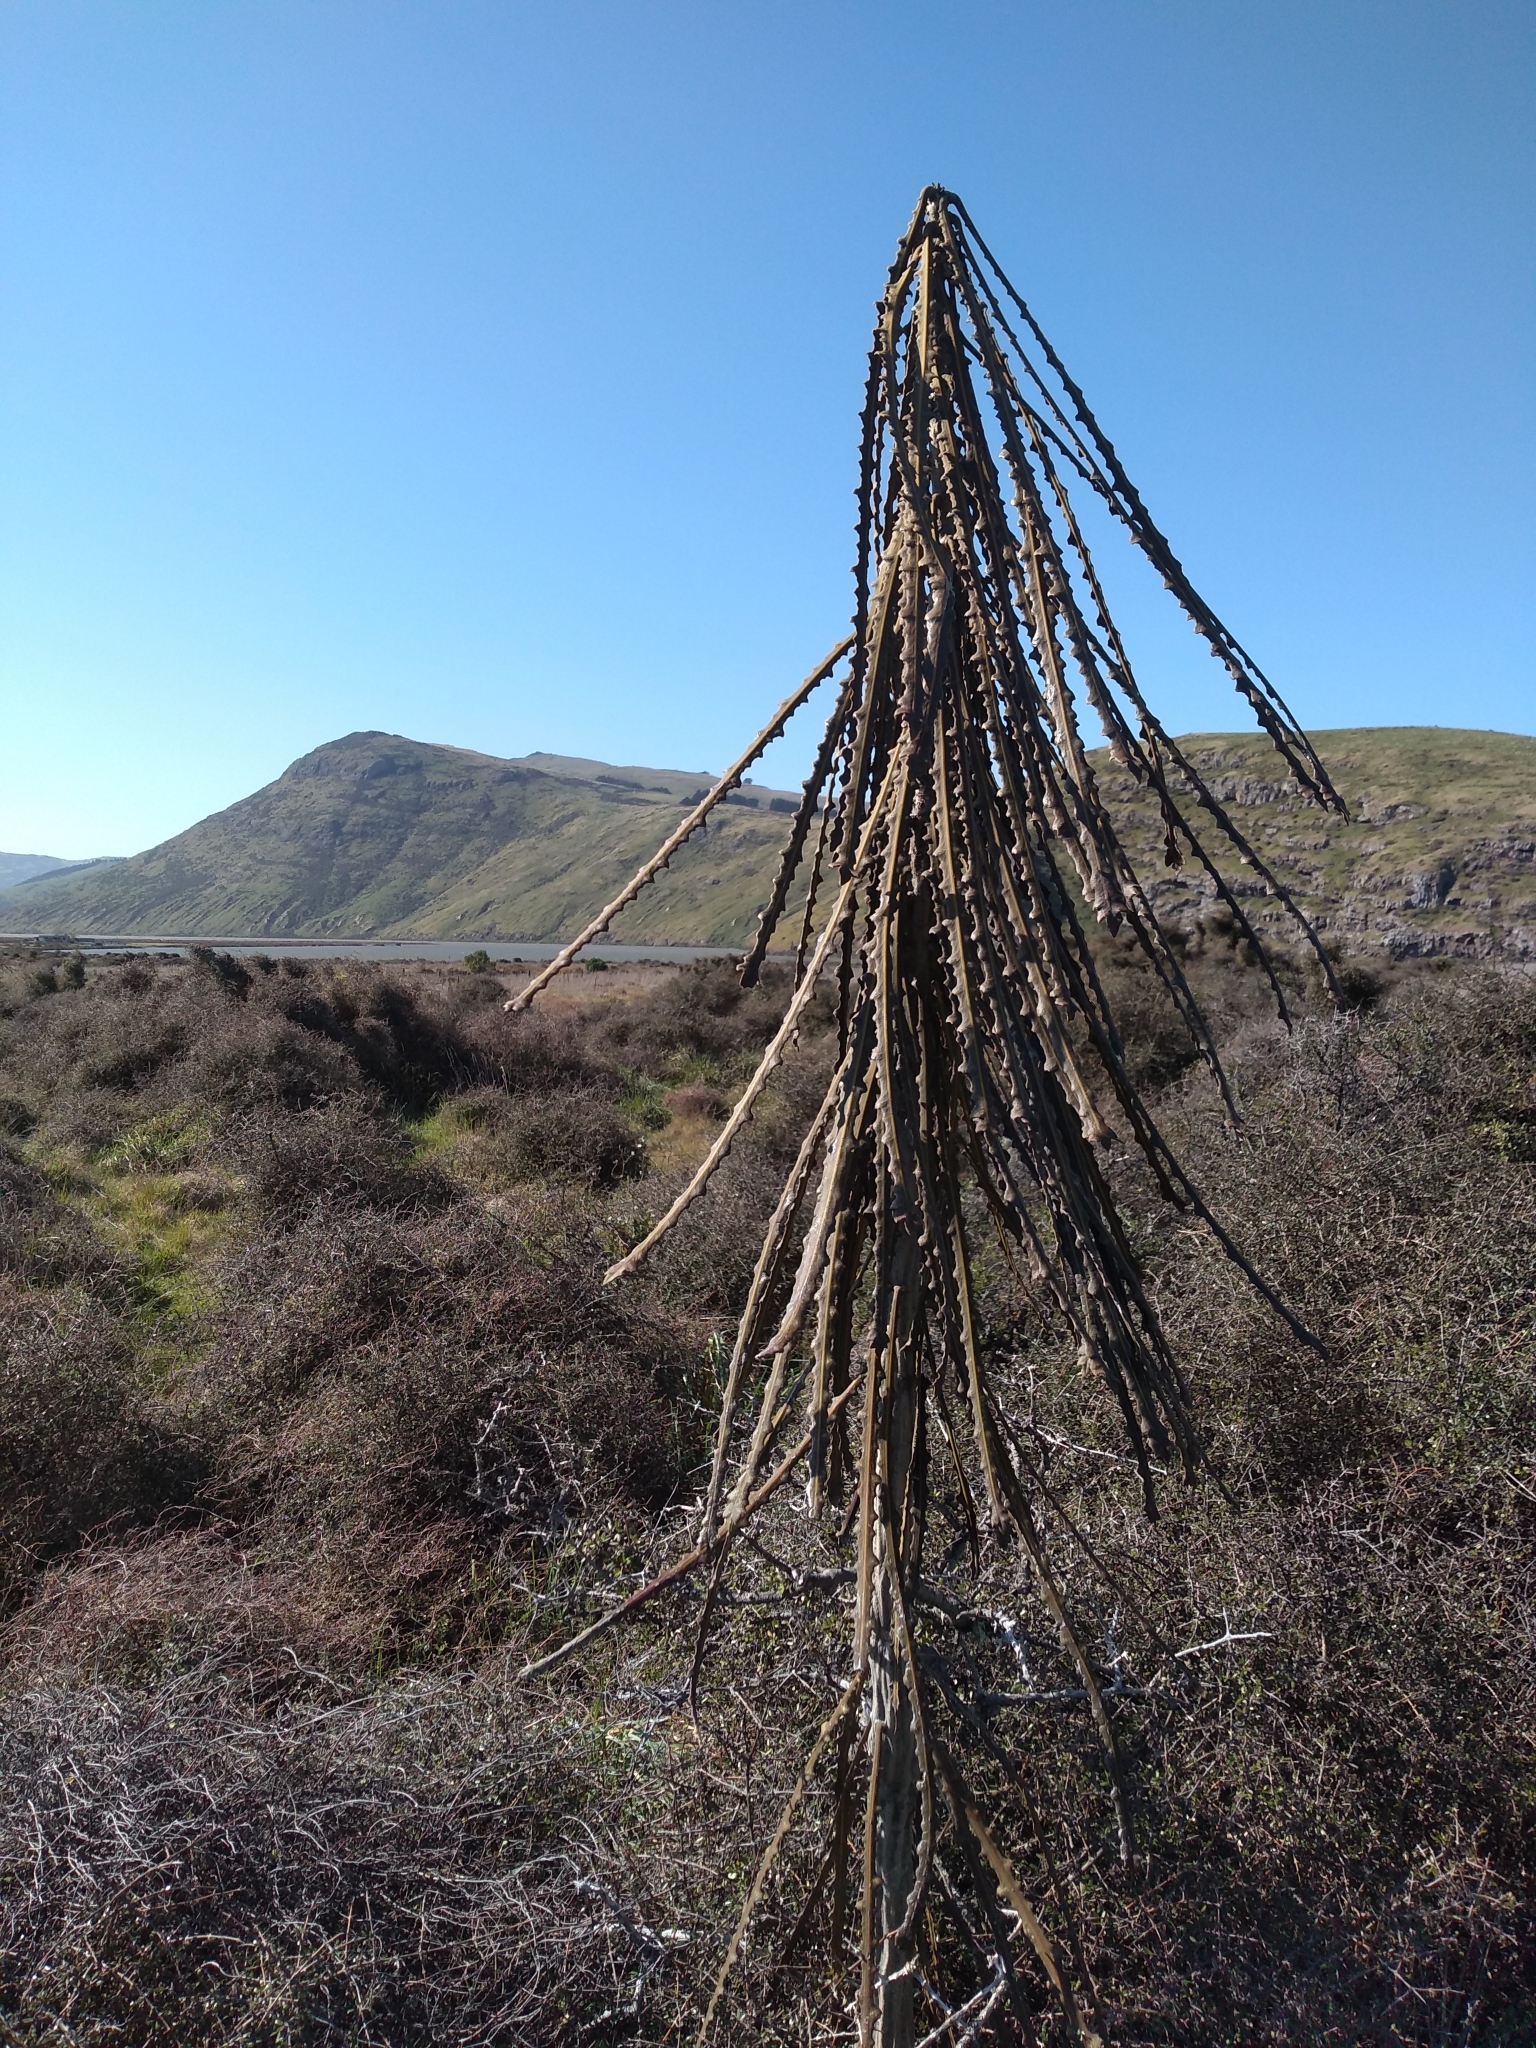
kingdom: Plantae
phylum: Tracheophyta
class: Magnoliopsida
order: Apiales
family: Araliaceae
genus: Pseudopanax
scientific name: Pseudopanax ferox
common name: Fierce lancewood
